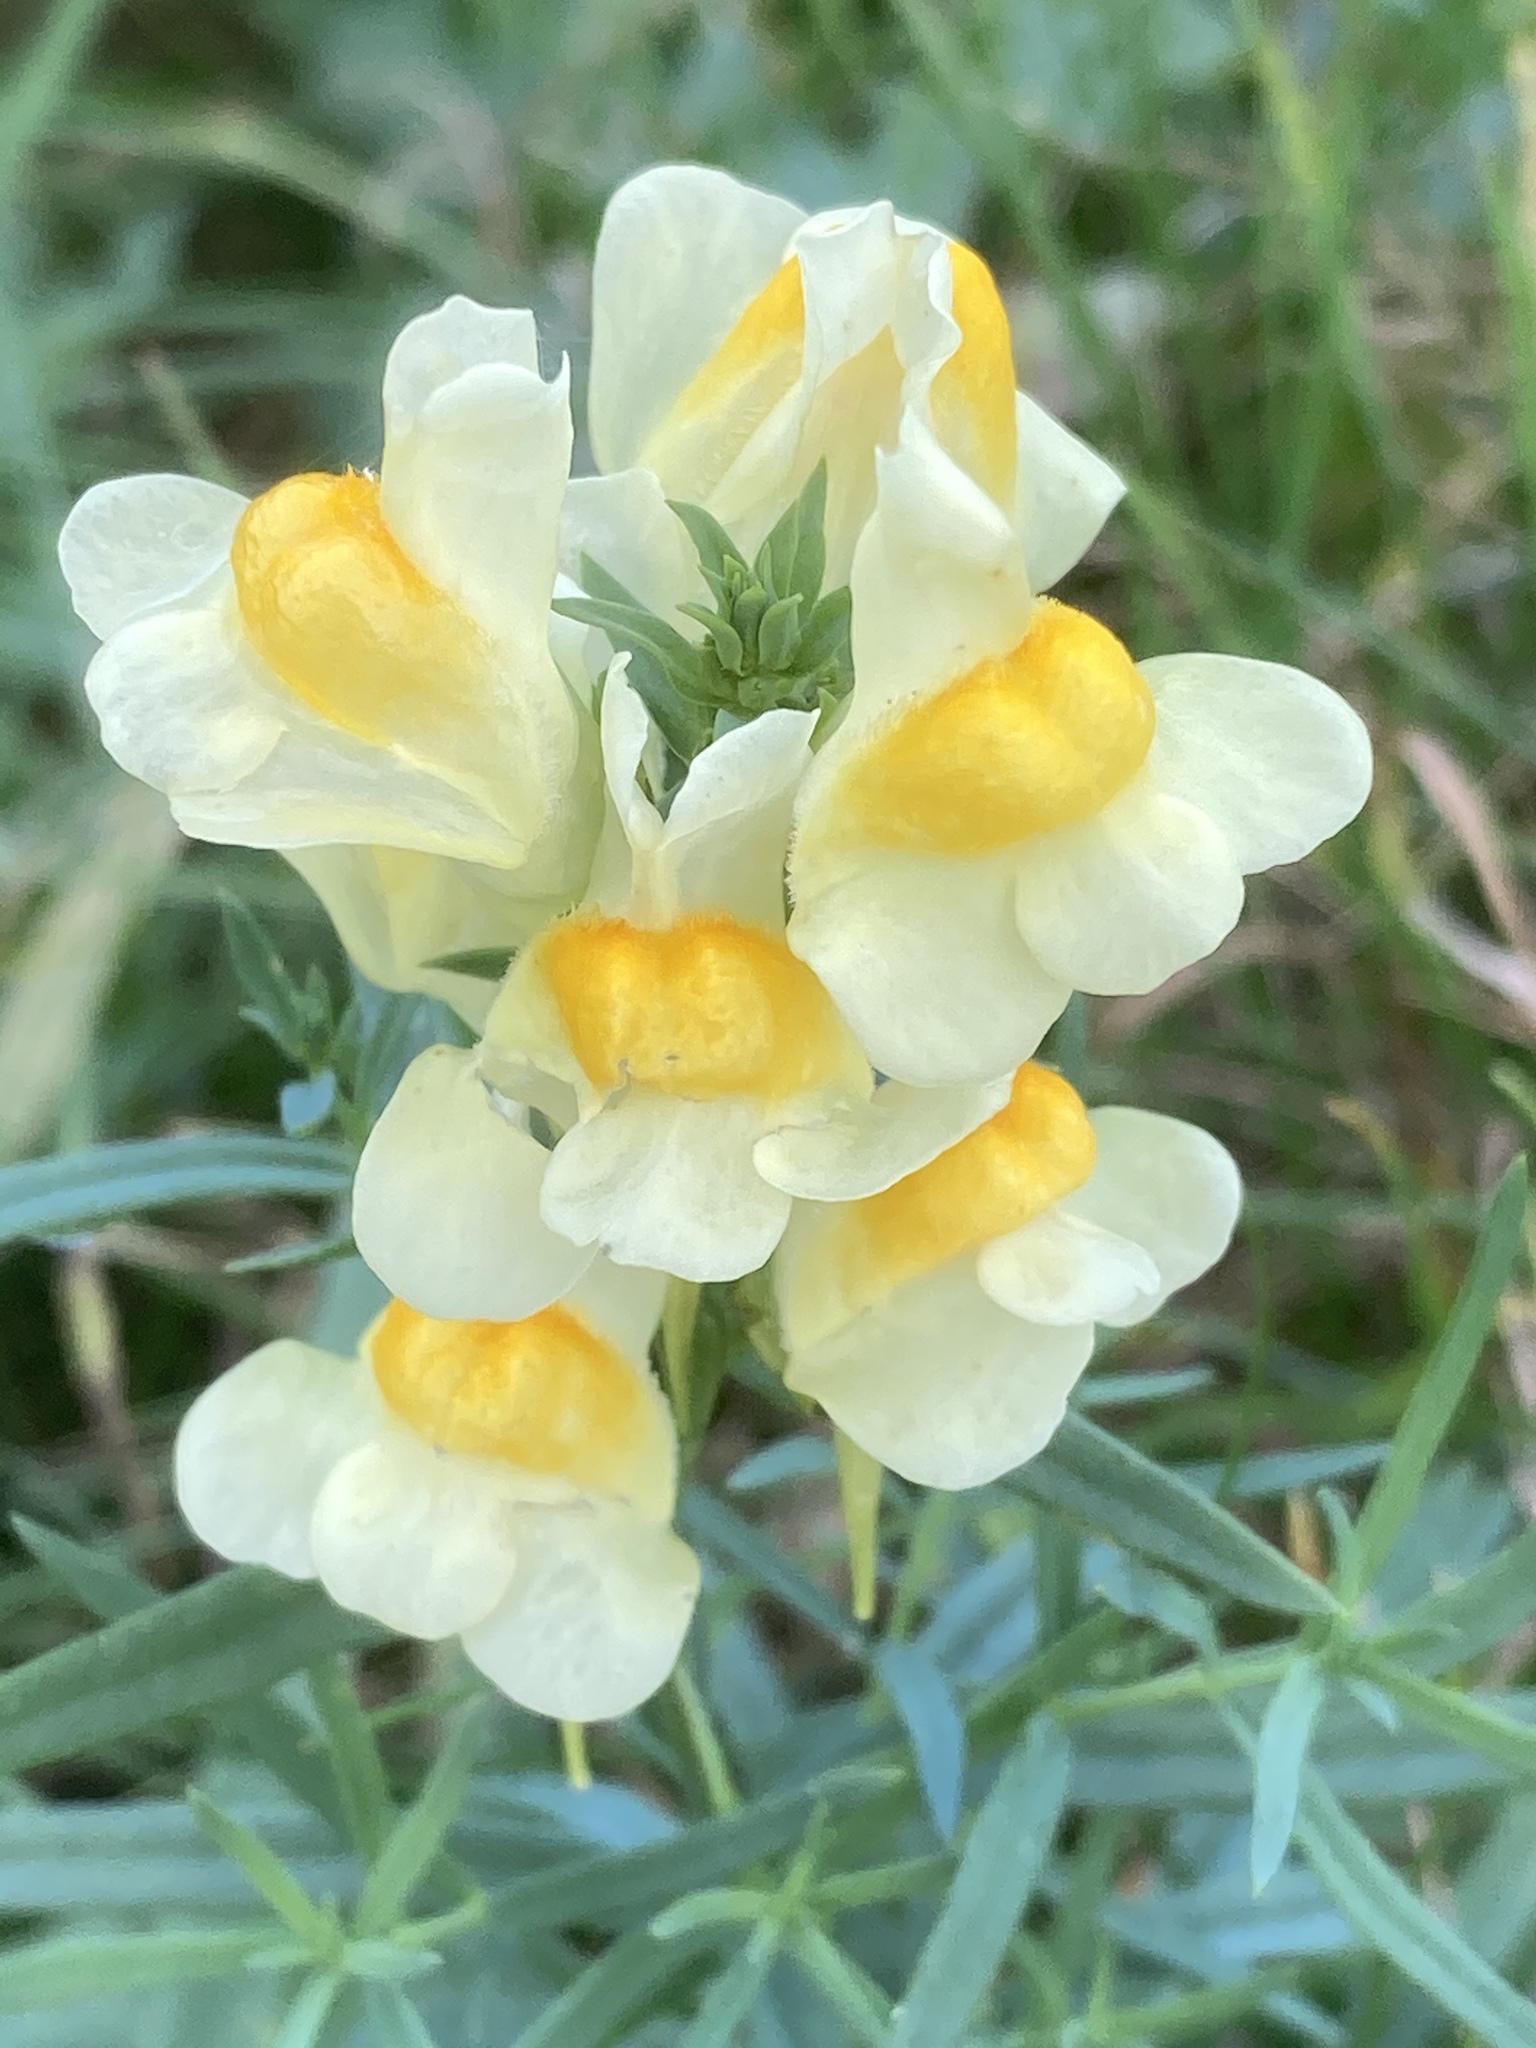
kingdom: Plantae
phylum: Tracheophyta
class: Magnoliopsida
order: Lamiales
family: Plantaginaceae
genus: Linaria
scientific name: Linaria vulgaris
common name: Butter and eggs
